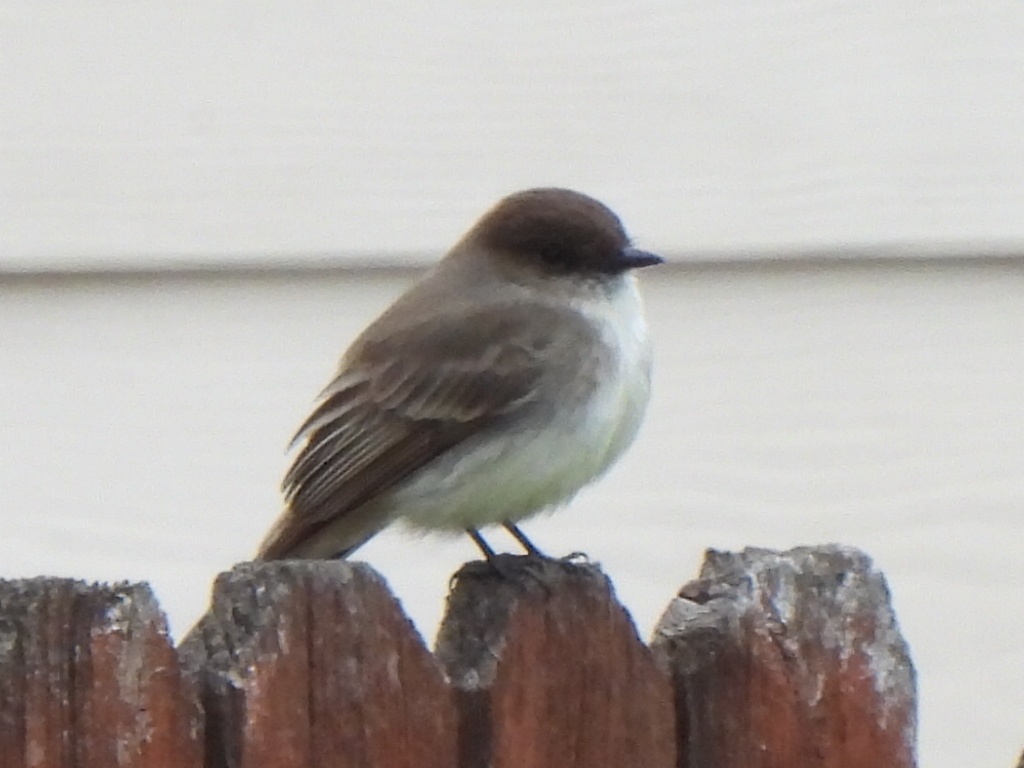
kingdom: Animalia
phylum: Chordata
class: Aves
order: Passeriformes
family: Tyrannidae
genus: Sayornis
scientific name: Sayornis phoebe
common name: Eastern phoebe
